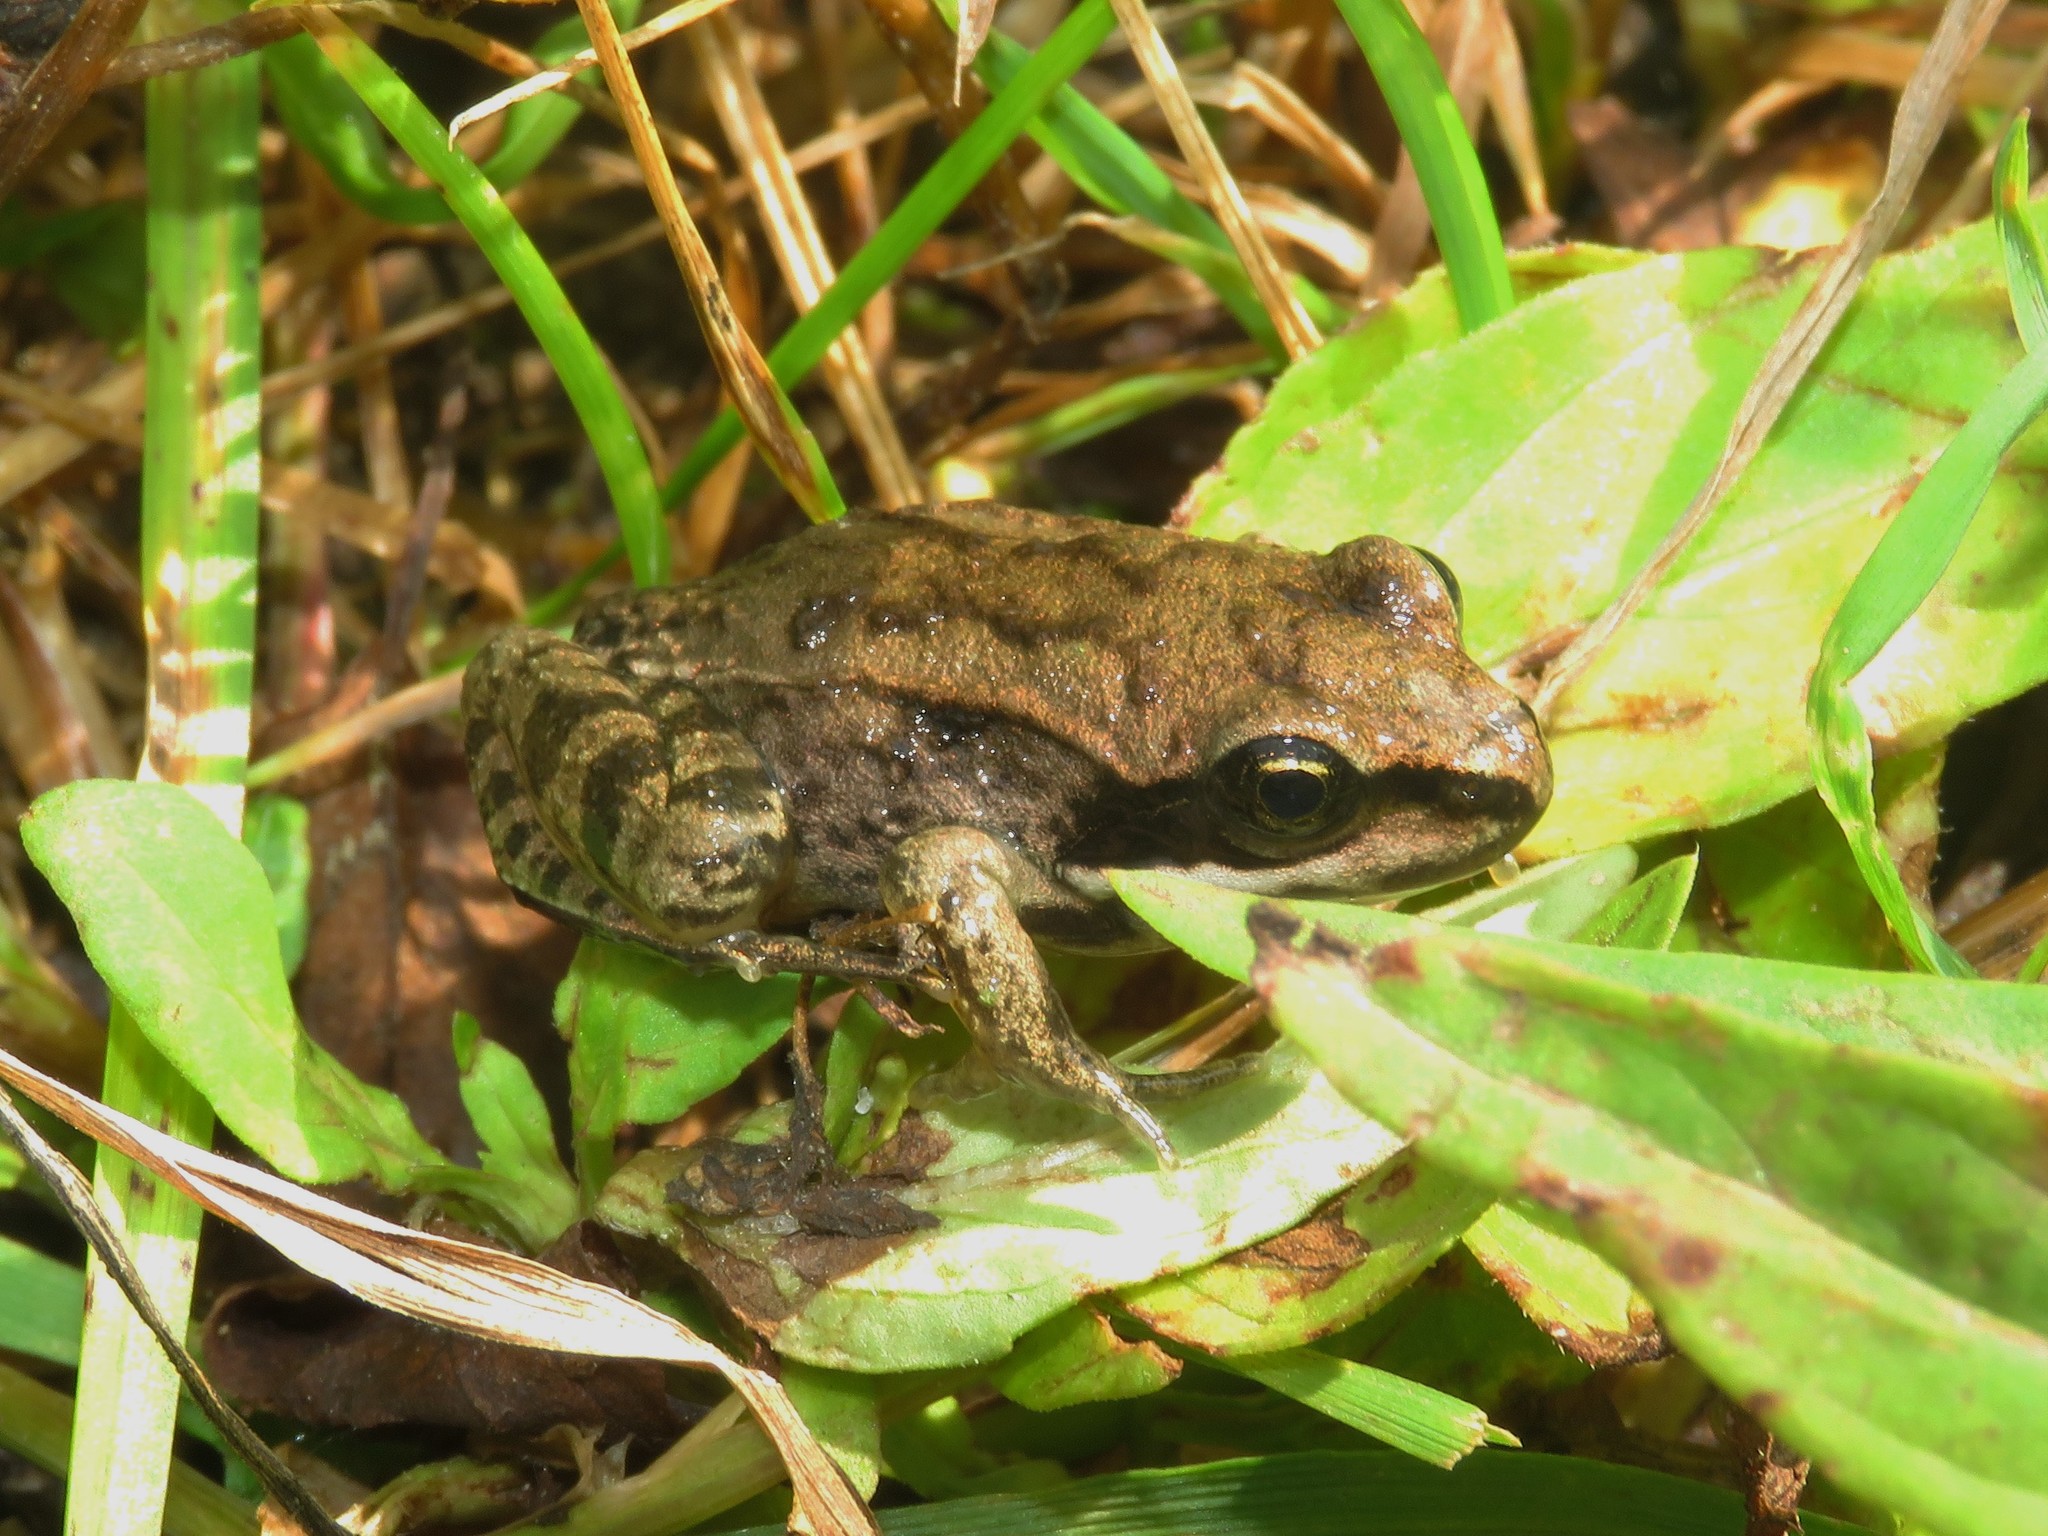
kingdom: Animalia
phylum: Chordata
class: Amphibia
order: Anura
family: Ranidae
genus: Lithobates
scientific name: Lithobates sylvaticus
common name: Wood frog
